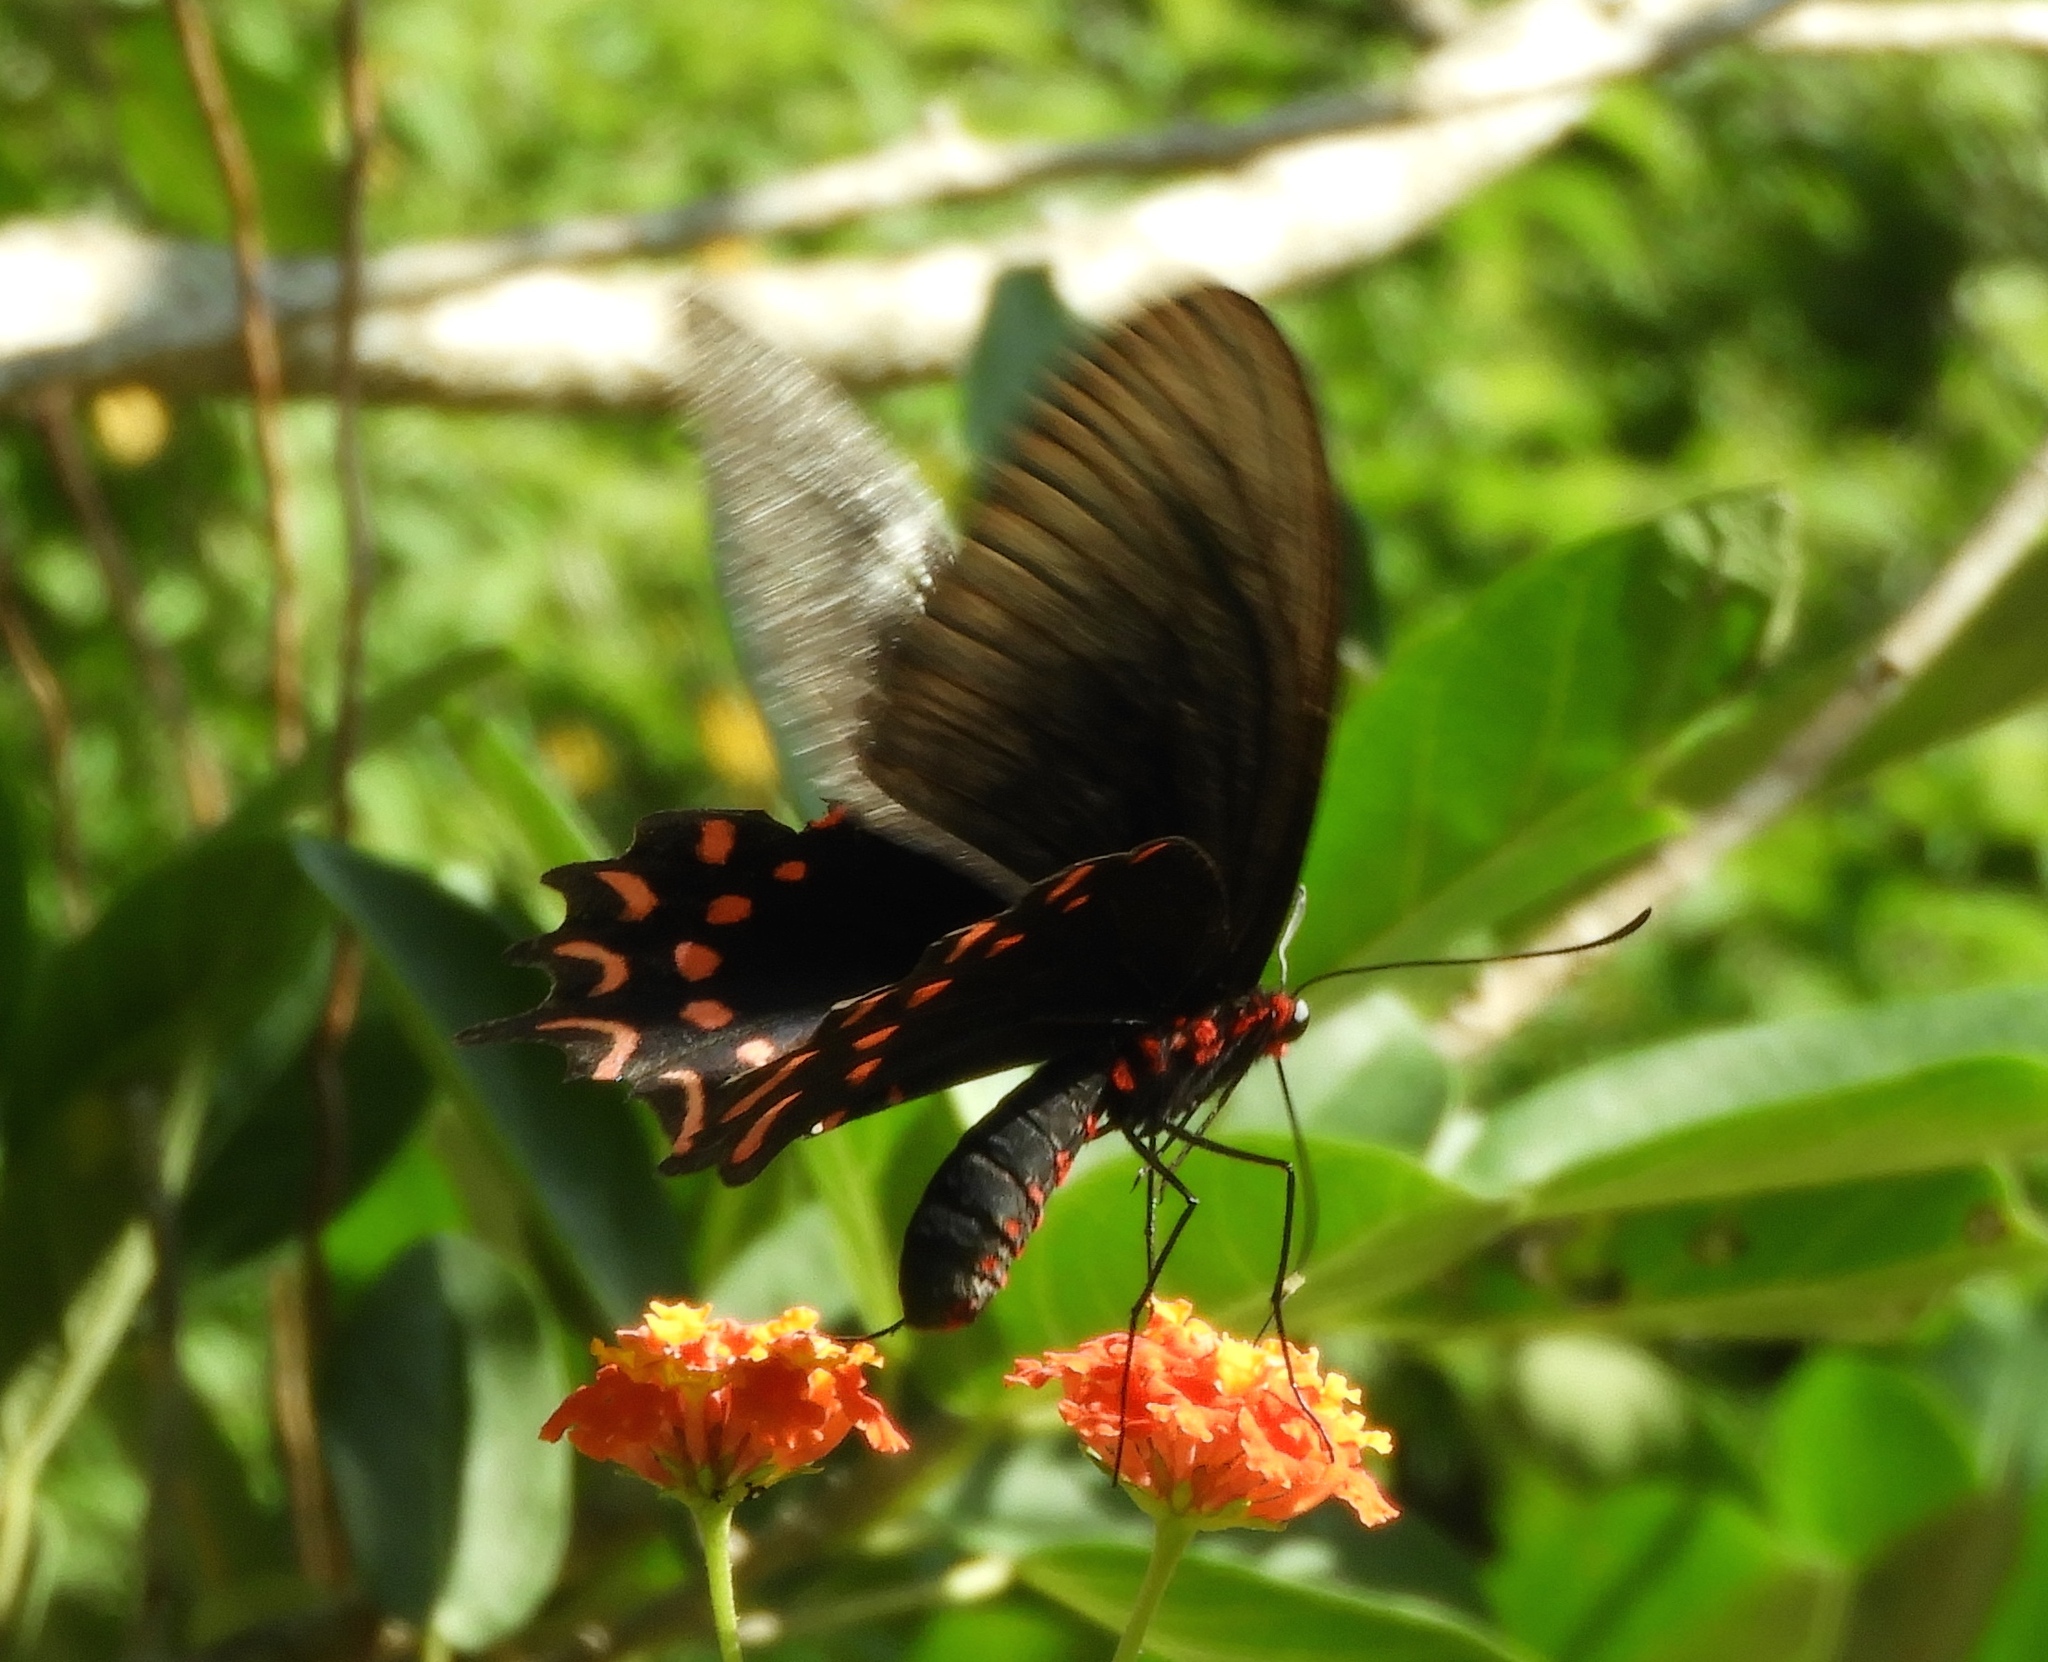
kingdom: Animalia
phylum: Arthropoda
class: Insecta
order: Lepidoptera
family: Papilionidae
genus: Parides
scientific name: Parides photinus
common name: Pink-spotted cattleheart
